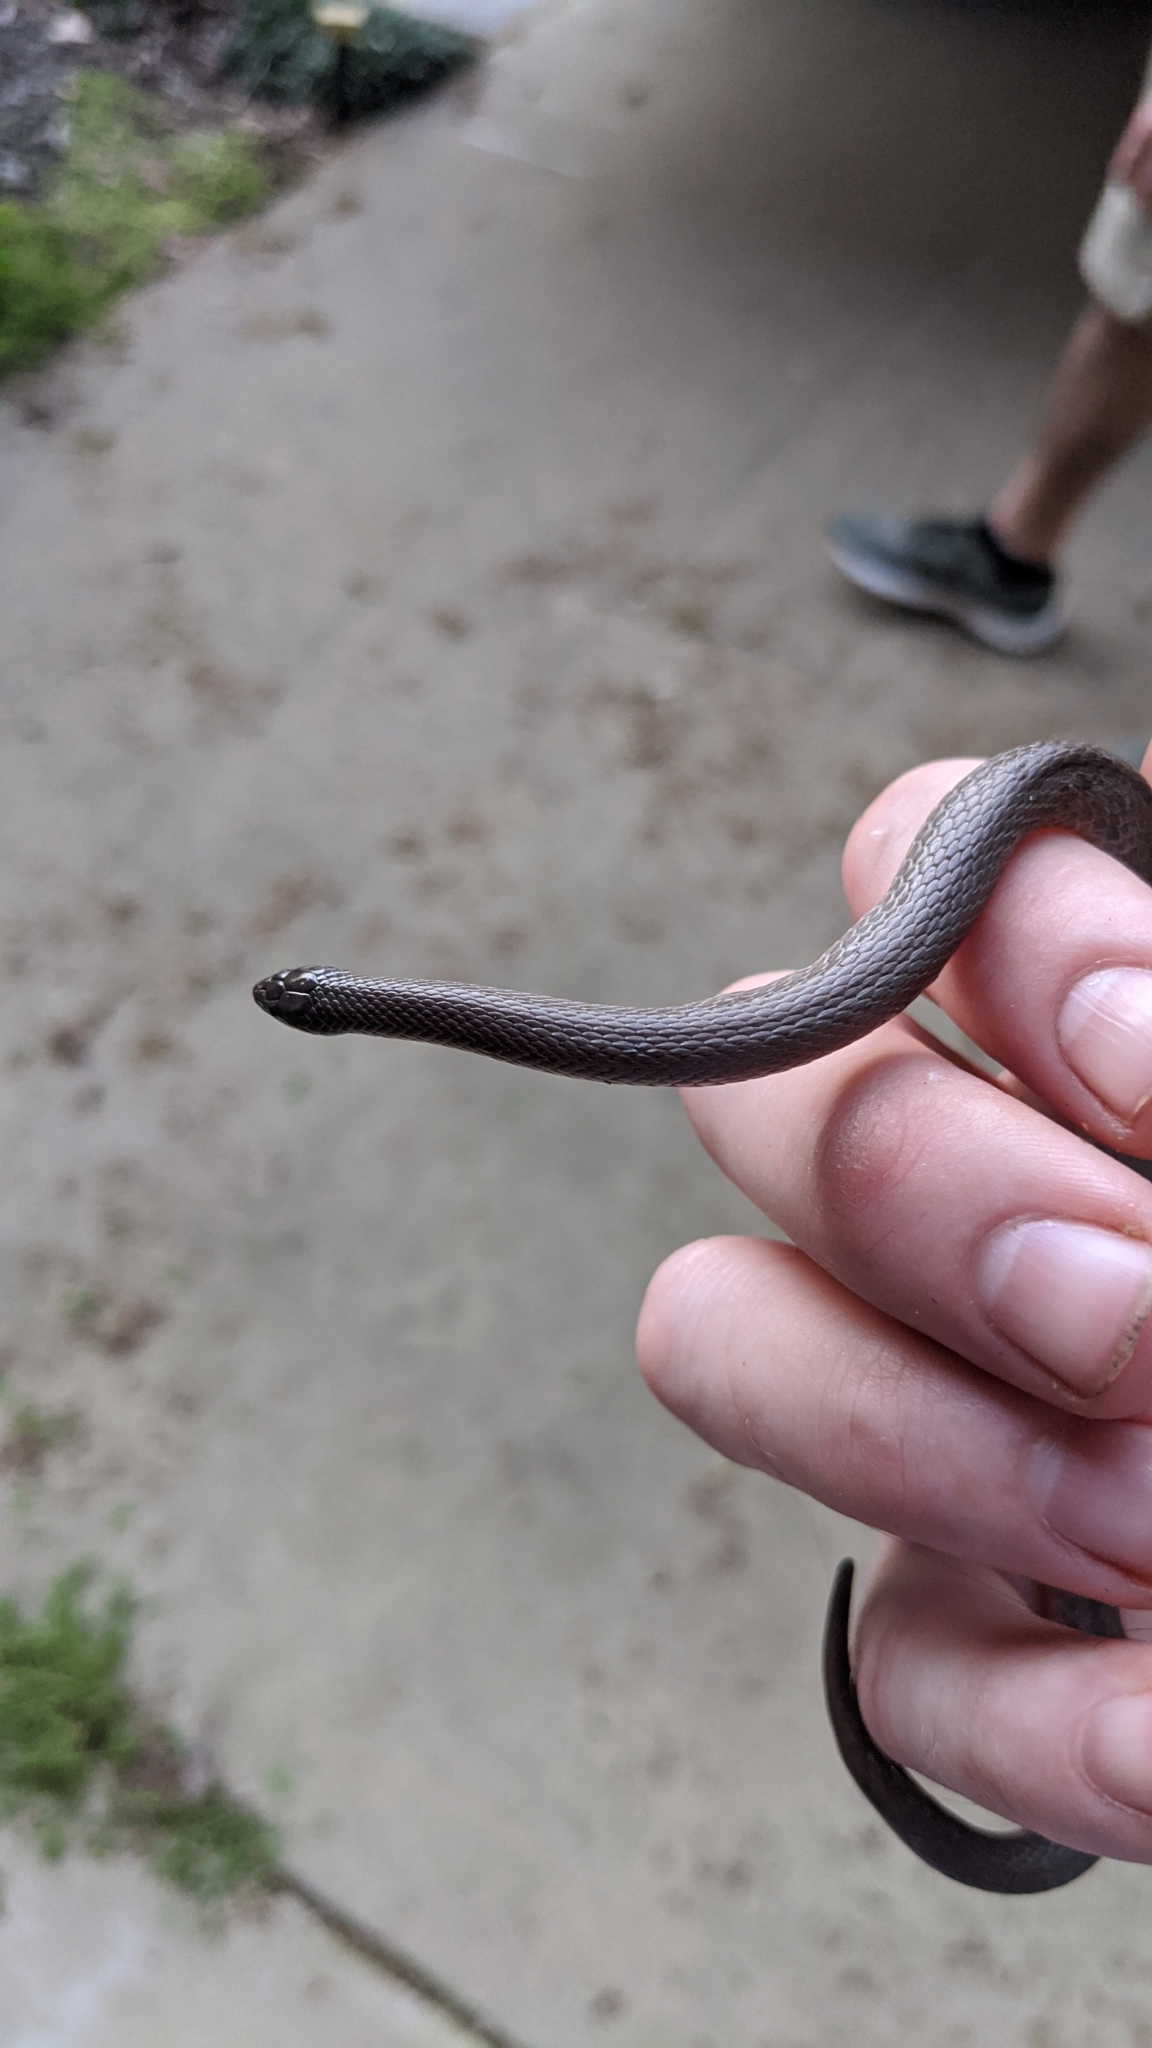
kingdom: Animalia
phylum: Chordata
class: Squamata
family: Colubridae
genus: Haldea
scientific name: Haldea striatula
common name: Rough earth snake
